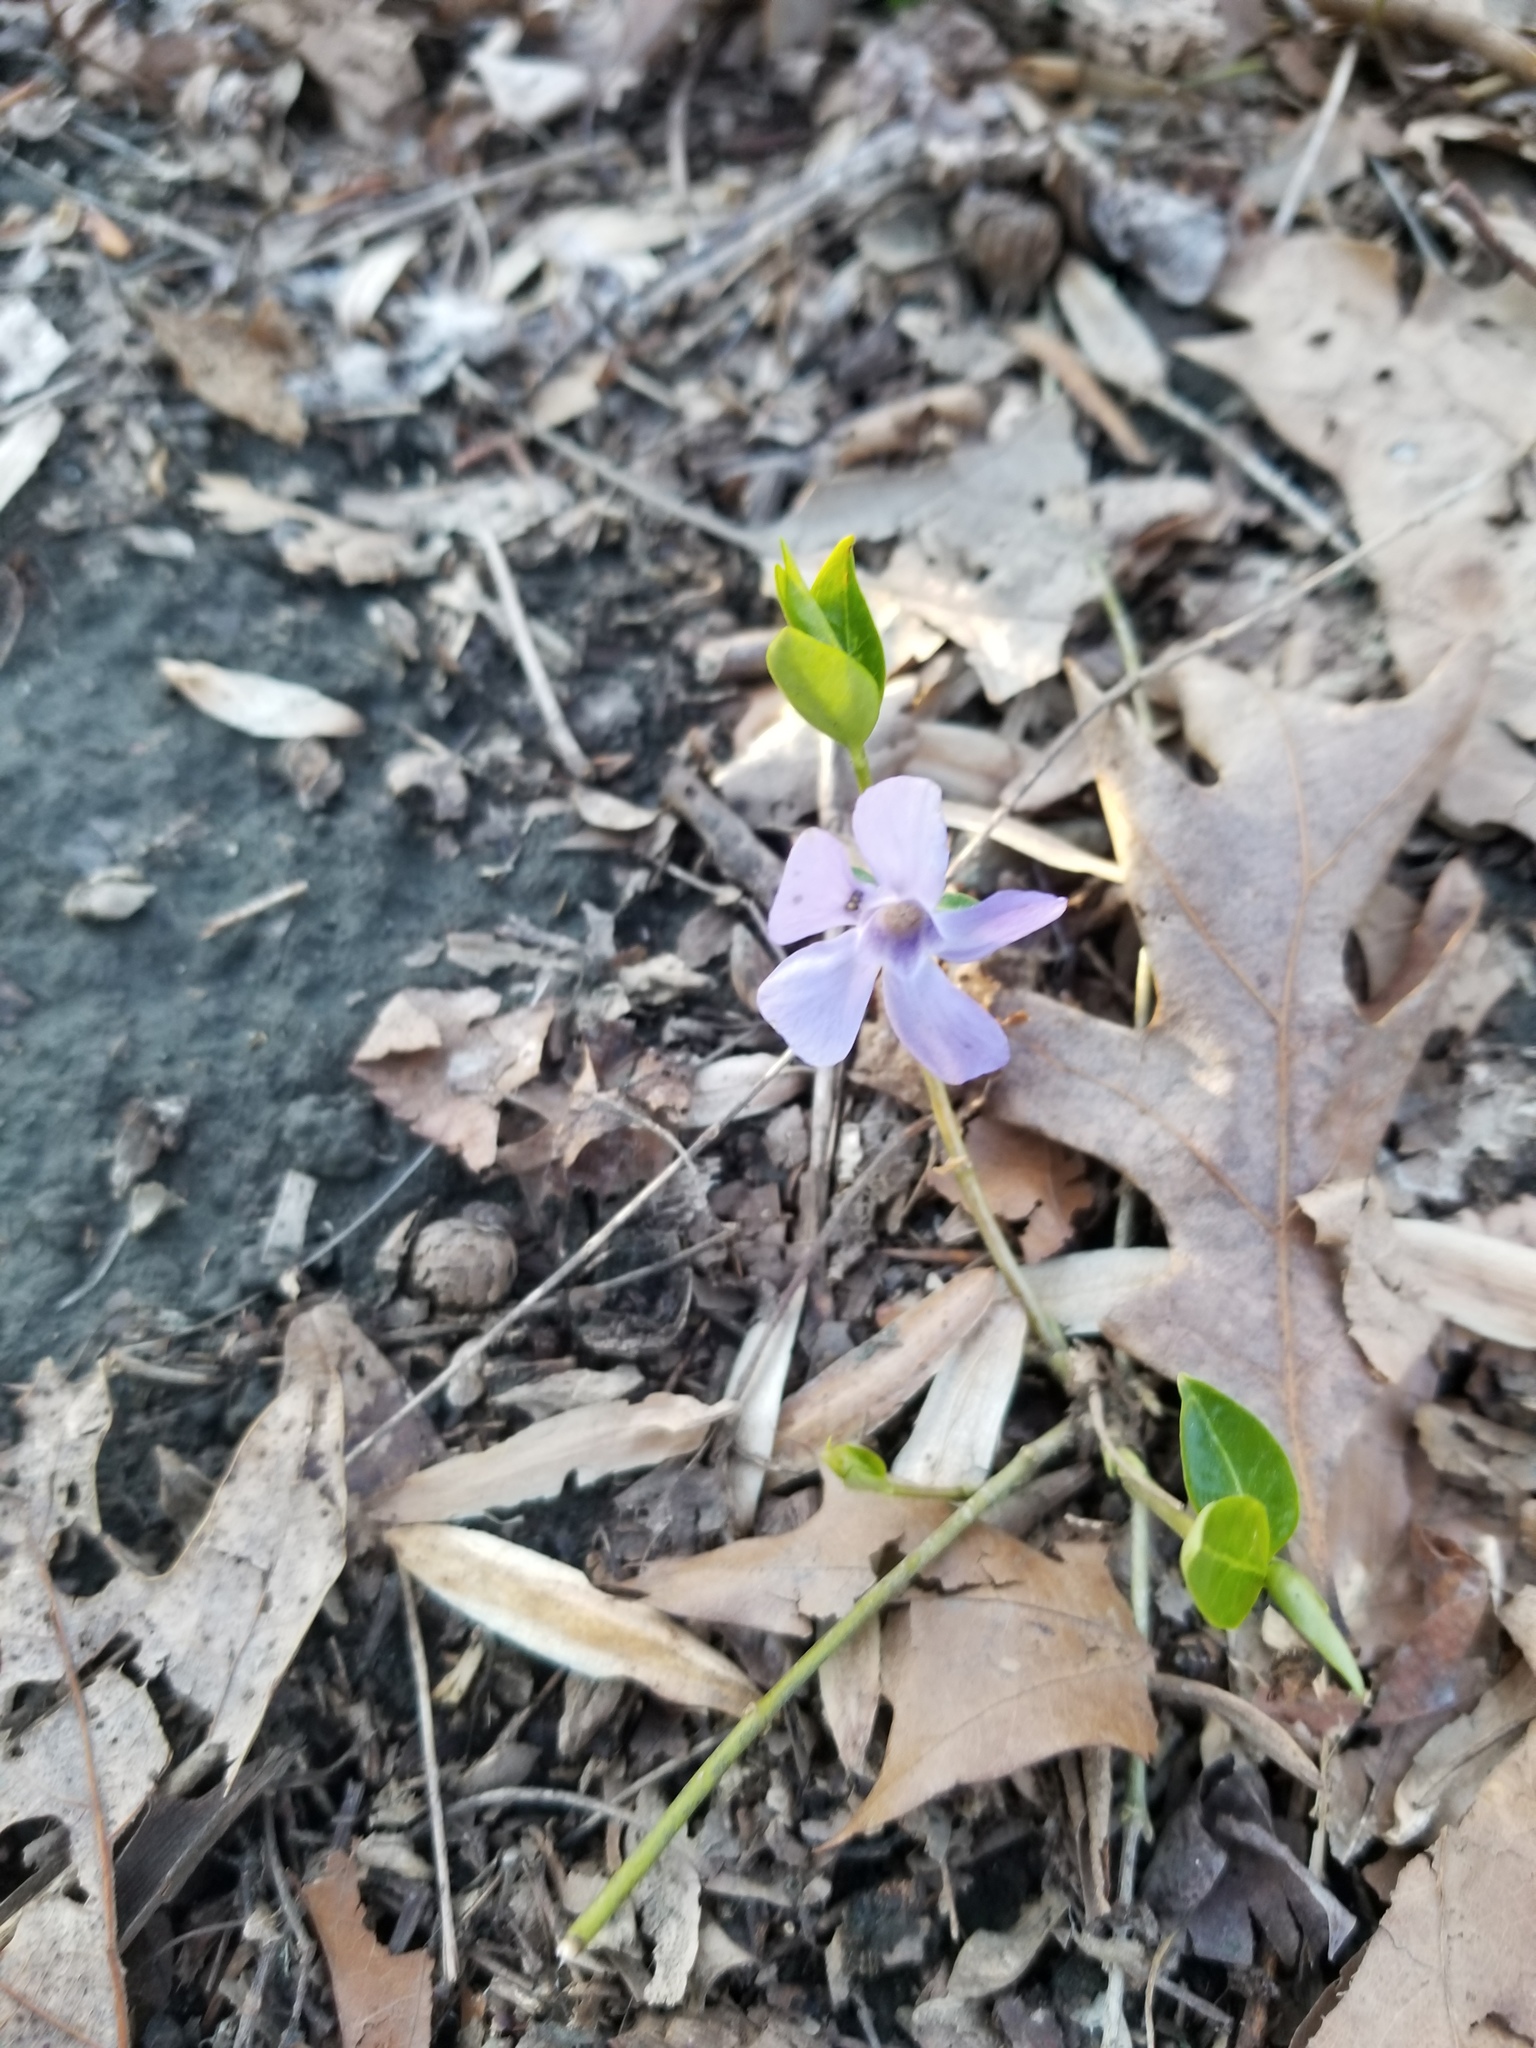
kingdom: Plantae
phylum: Tracheophyta
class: Magnoliopsida
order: Gentianales
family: Apocynaceae
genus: Vinca
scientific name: Vinca minor
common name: Lesser periwinkle
